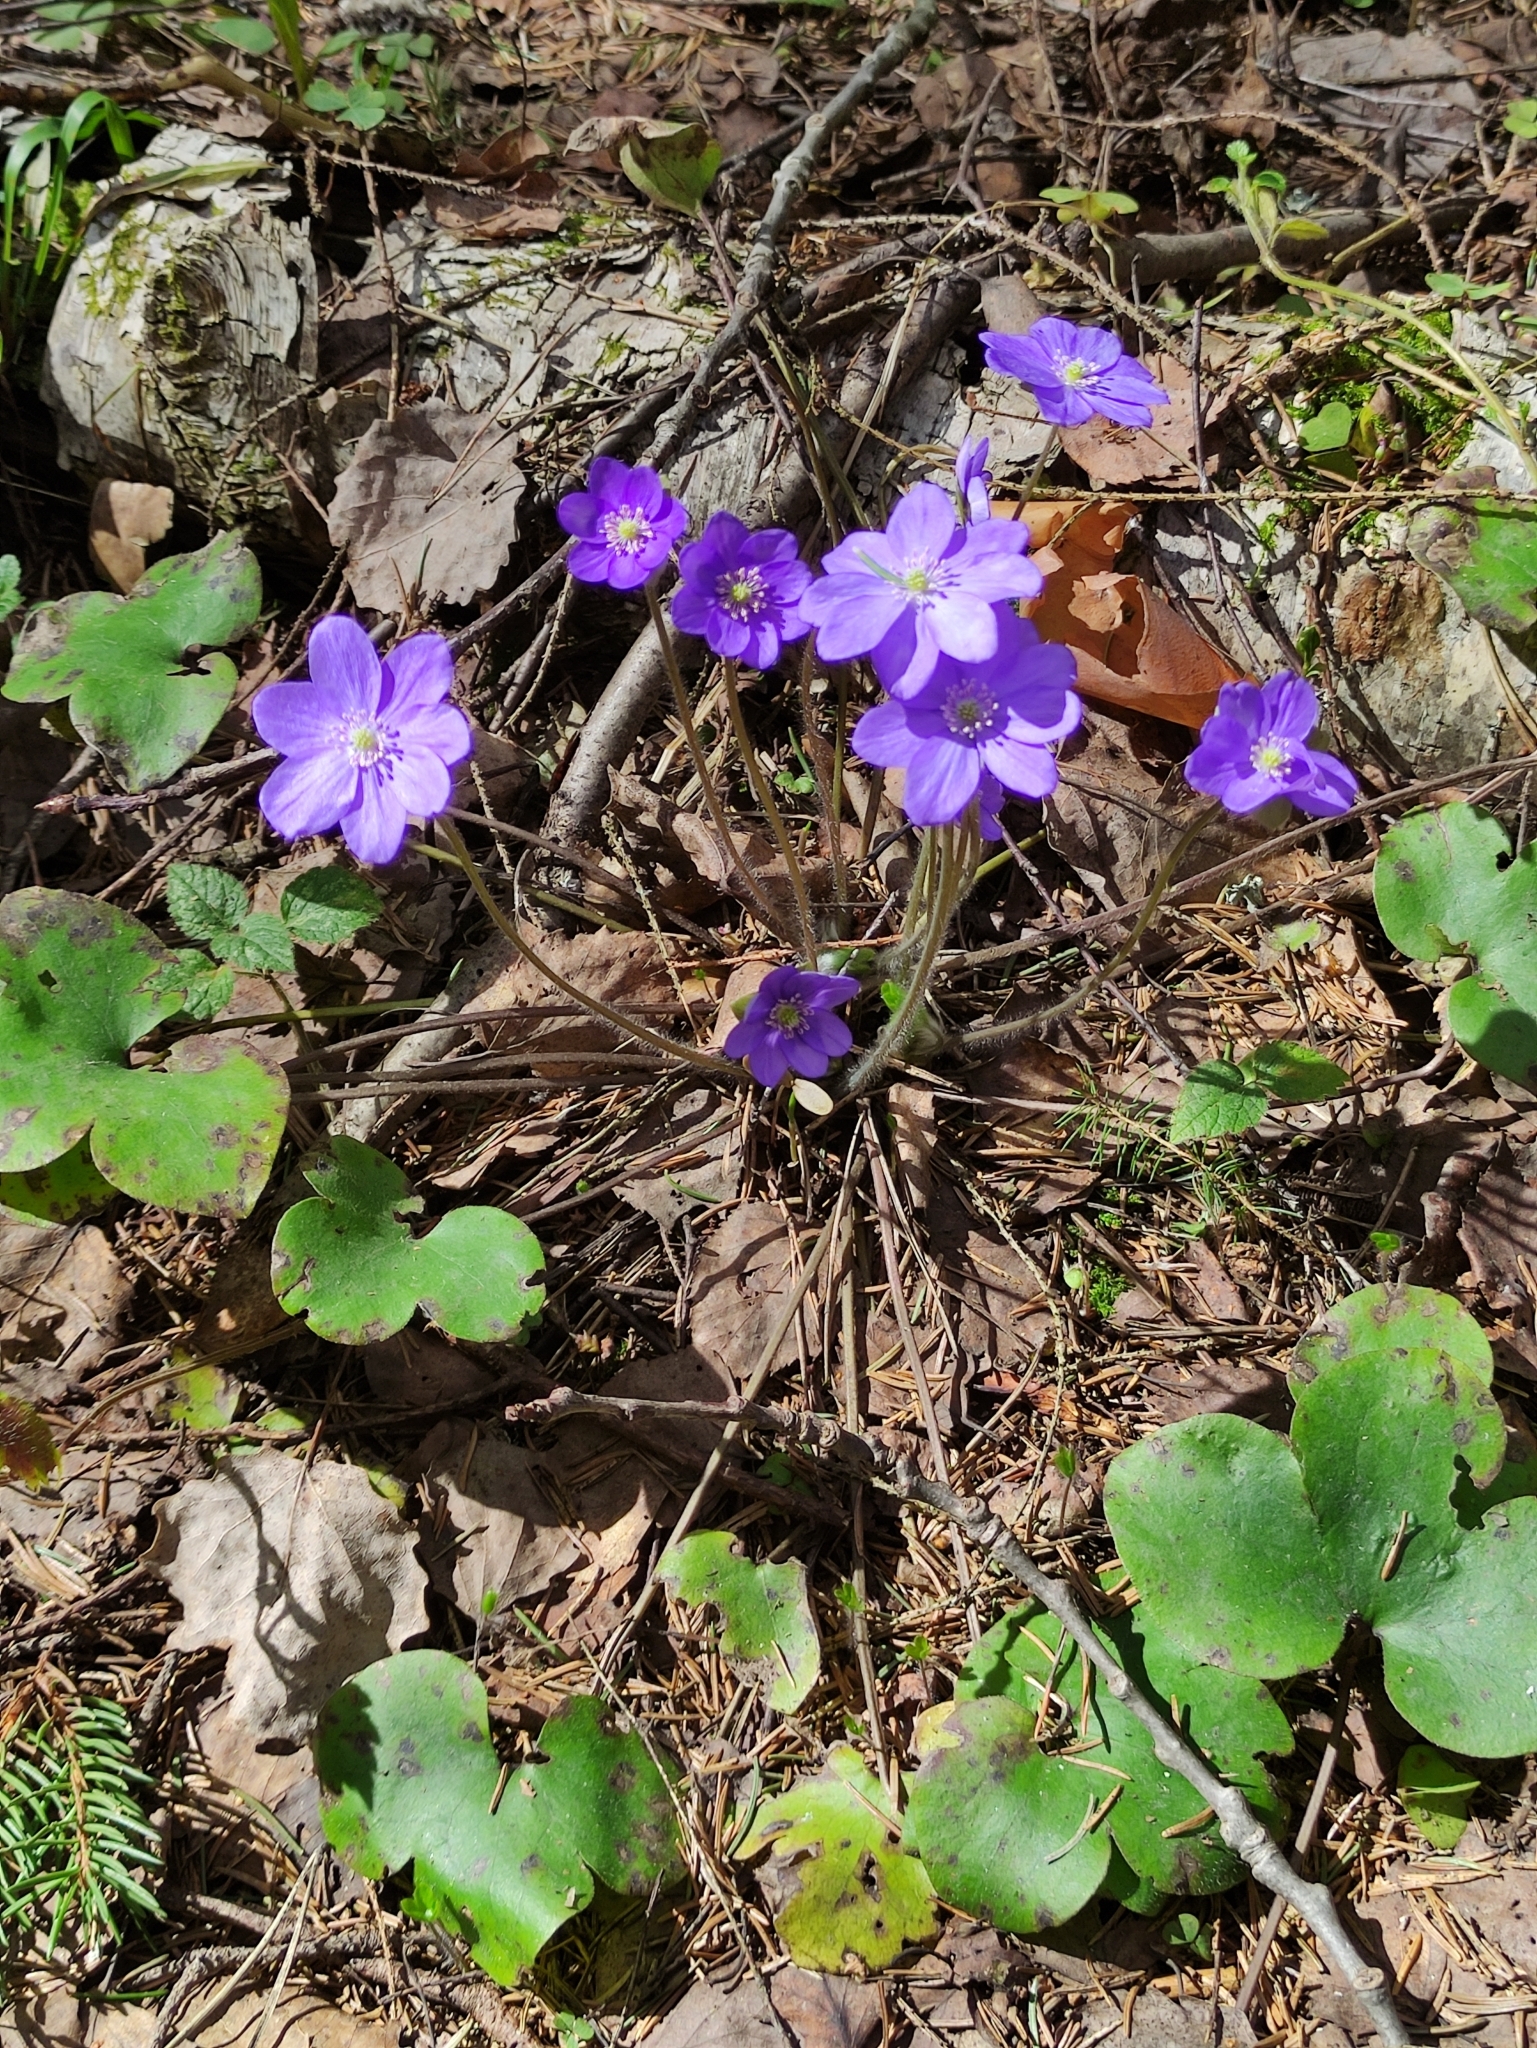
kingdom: Plantae
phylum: Tracheophyta
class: Magnoliopsida
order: Ranunculales
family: Ranunculaceae
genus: Hepatica
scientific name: Hepatica nobilis
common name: Liverleaf
